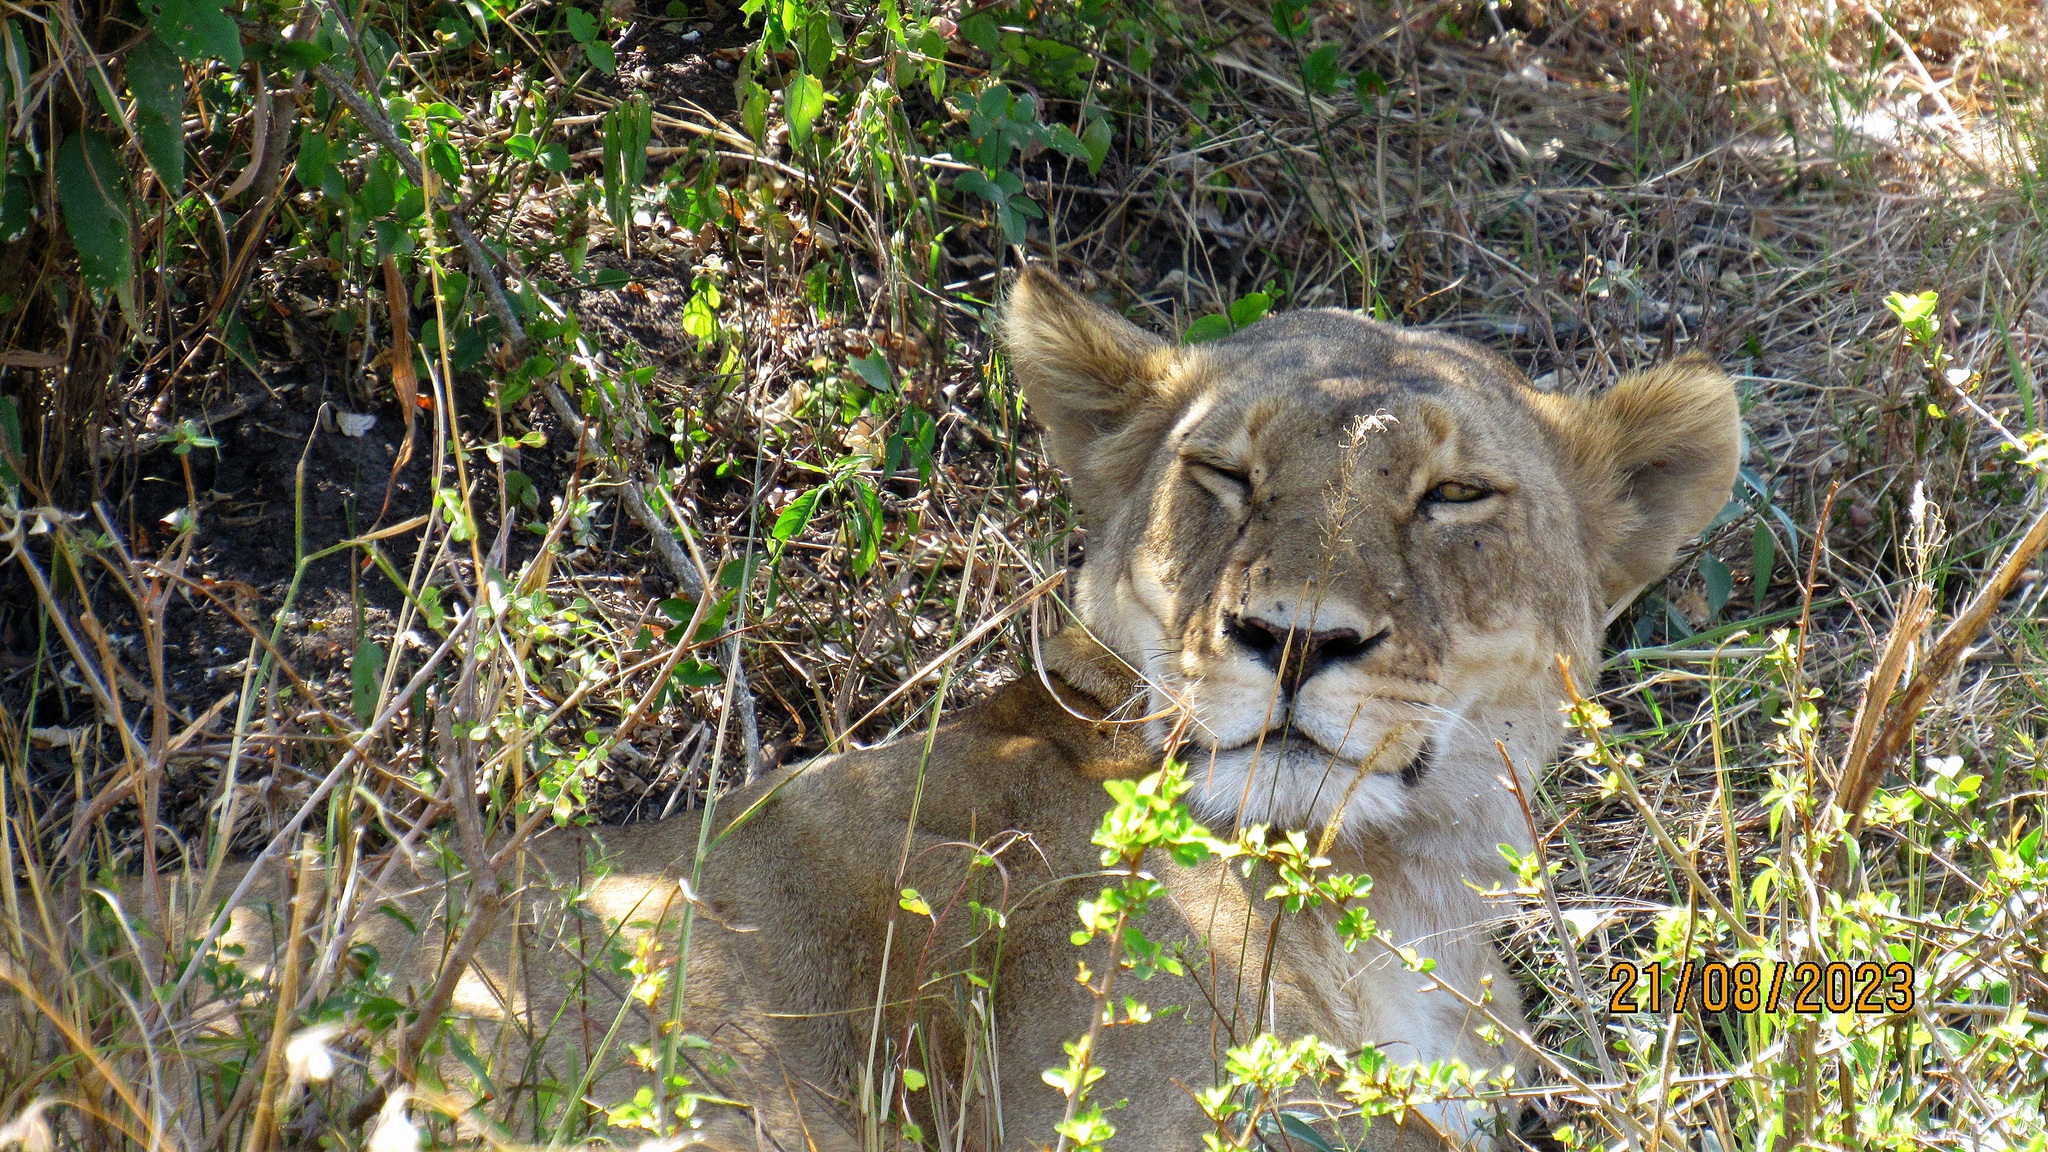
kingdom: Animalia
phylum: Chordata
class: Mammalia
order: Carnivora
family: Felidae
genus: Panthera
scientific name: Panthera leo
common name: Lion
